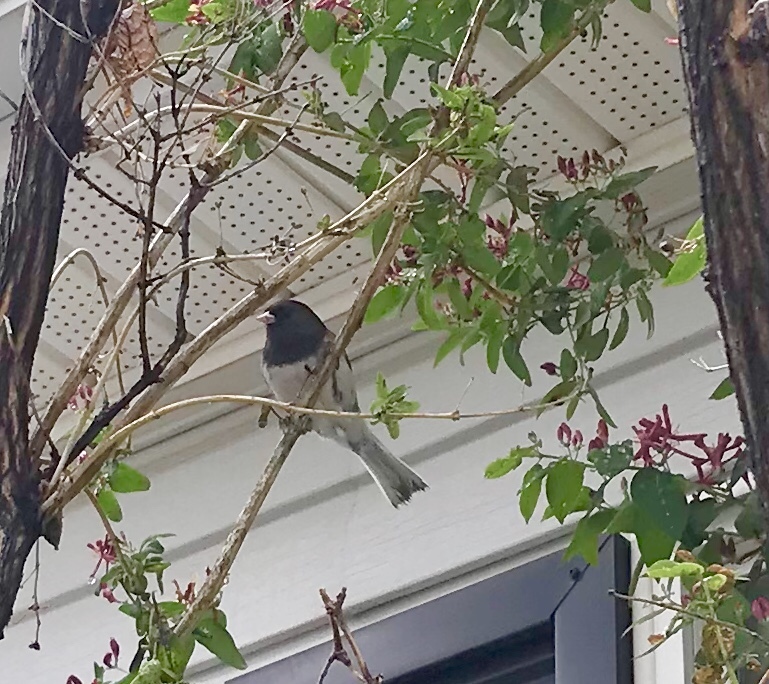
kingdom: Animalia
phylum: Chordata
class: Aves
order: Passeriformes
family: Passerellidae
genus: Junco
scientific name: Junco hyemalis
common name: Dark-eyed junco
